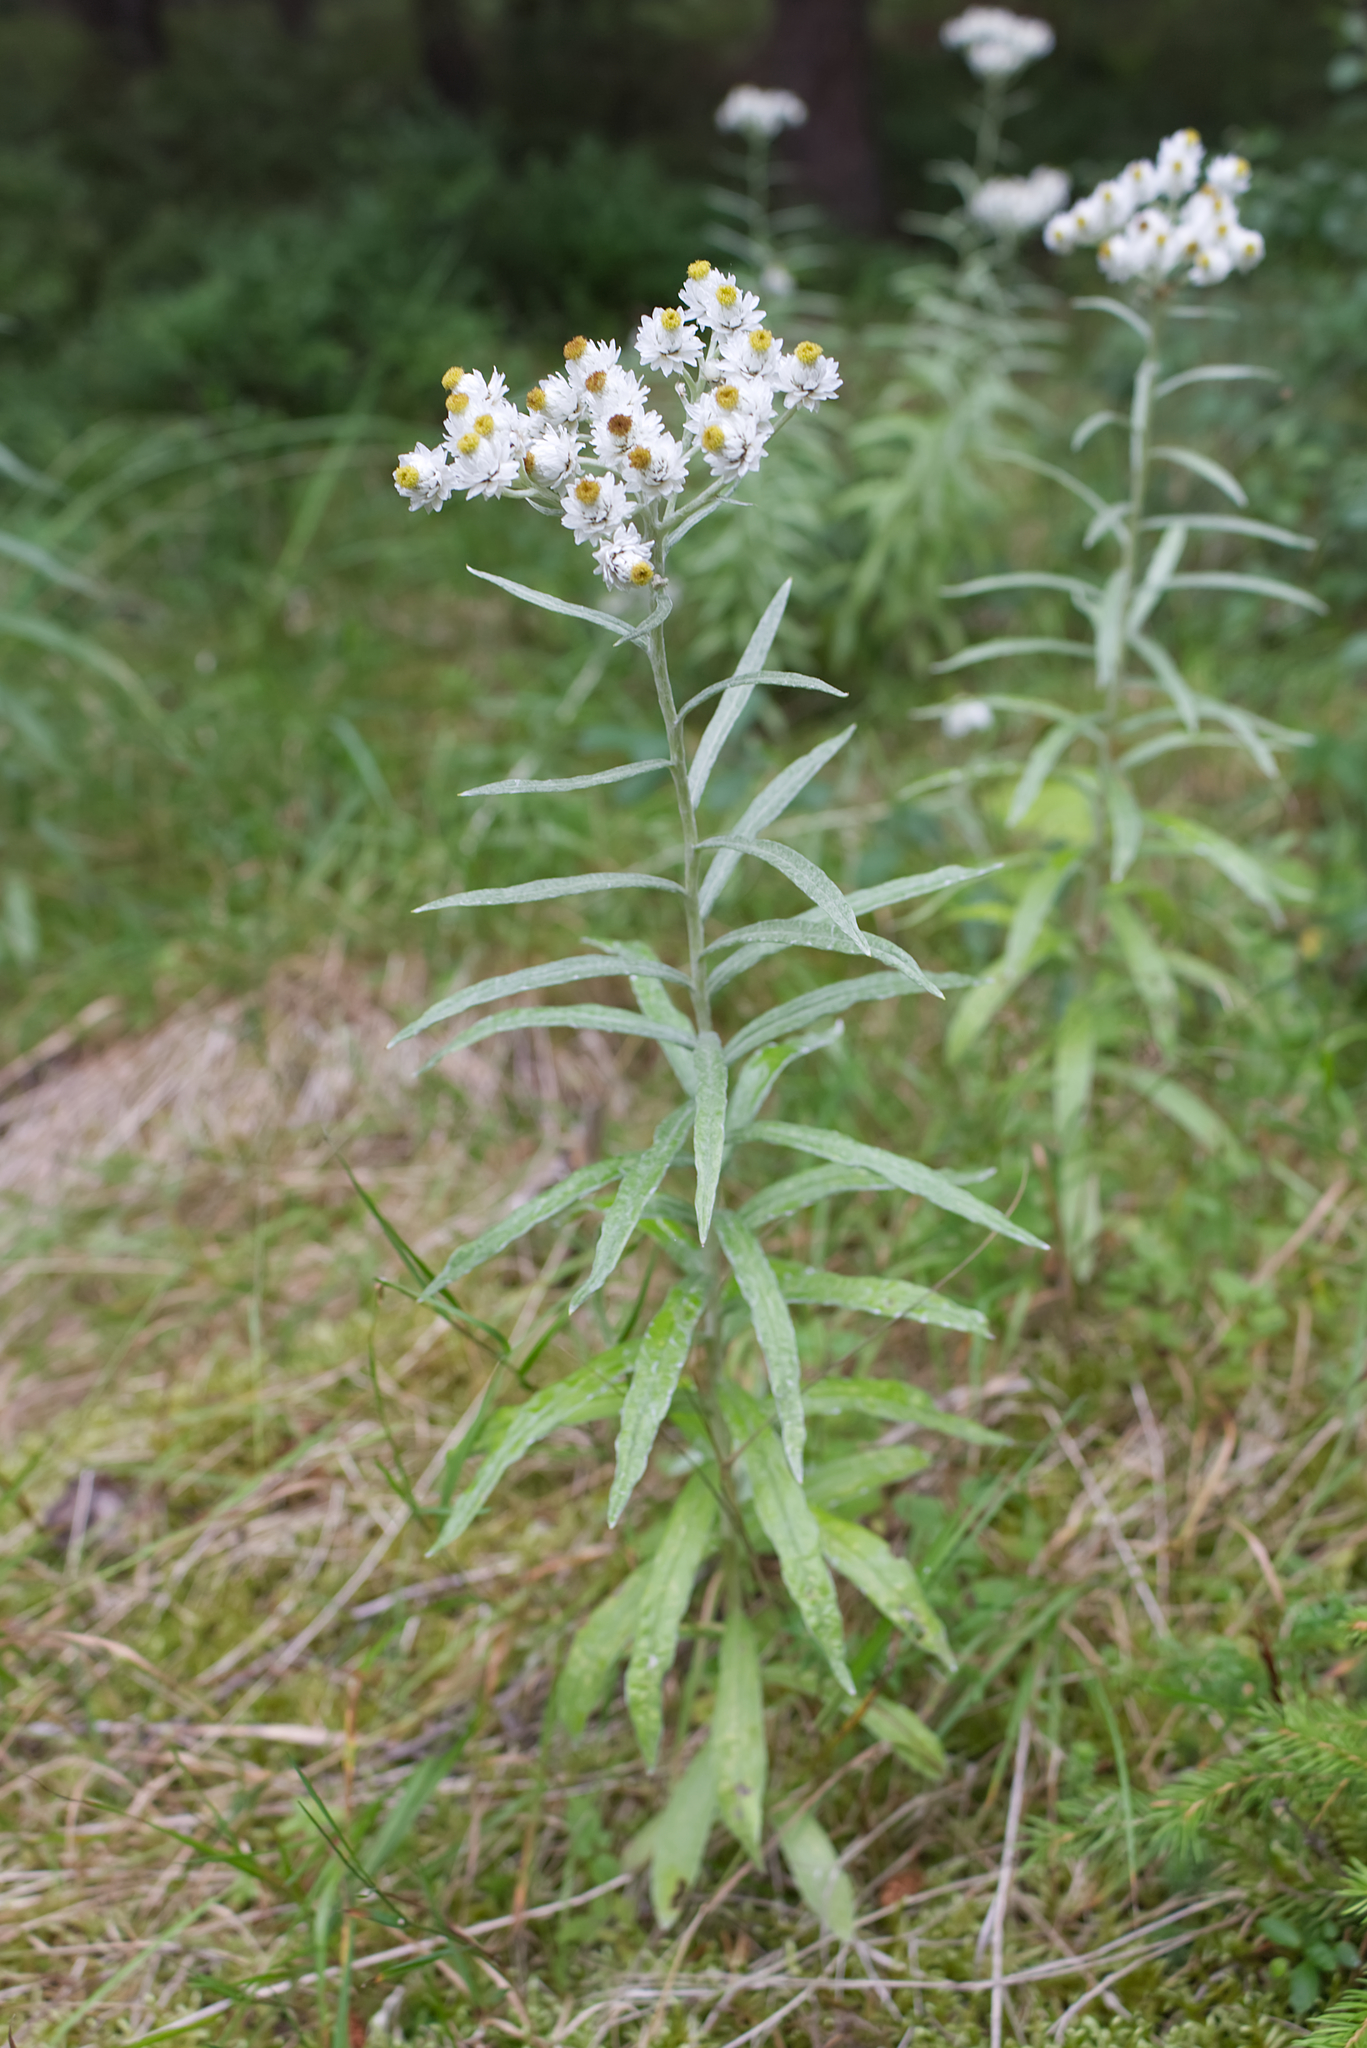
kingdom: Plantae
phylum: Tracheophyta
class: Magnoliopsida
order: Asterales
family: Asteraceae
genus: Anaphalis
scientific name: Anaphalis margaritacea
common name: Pearly everlasting
